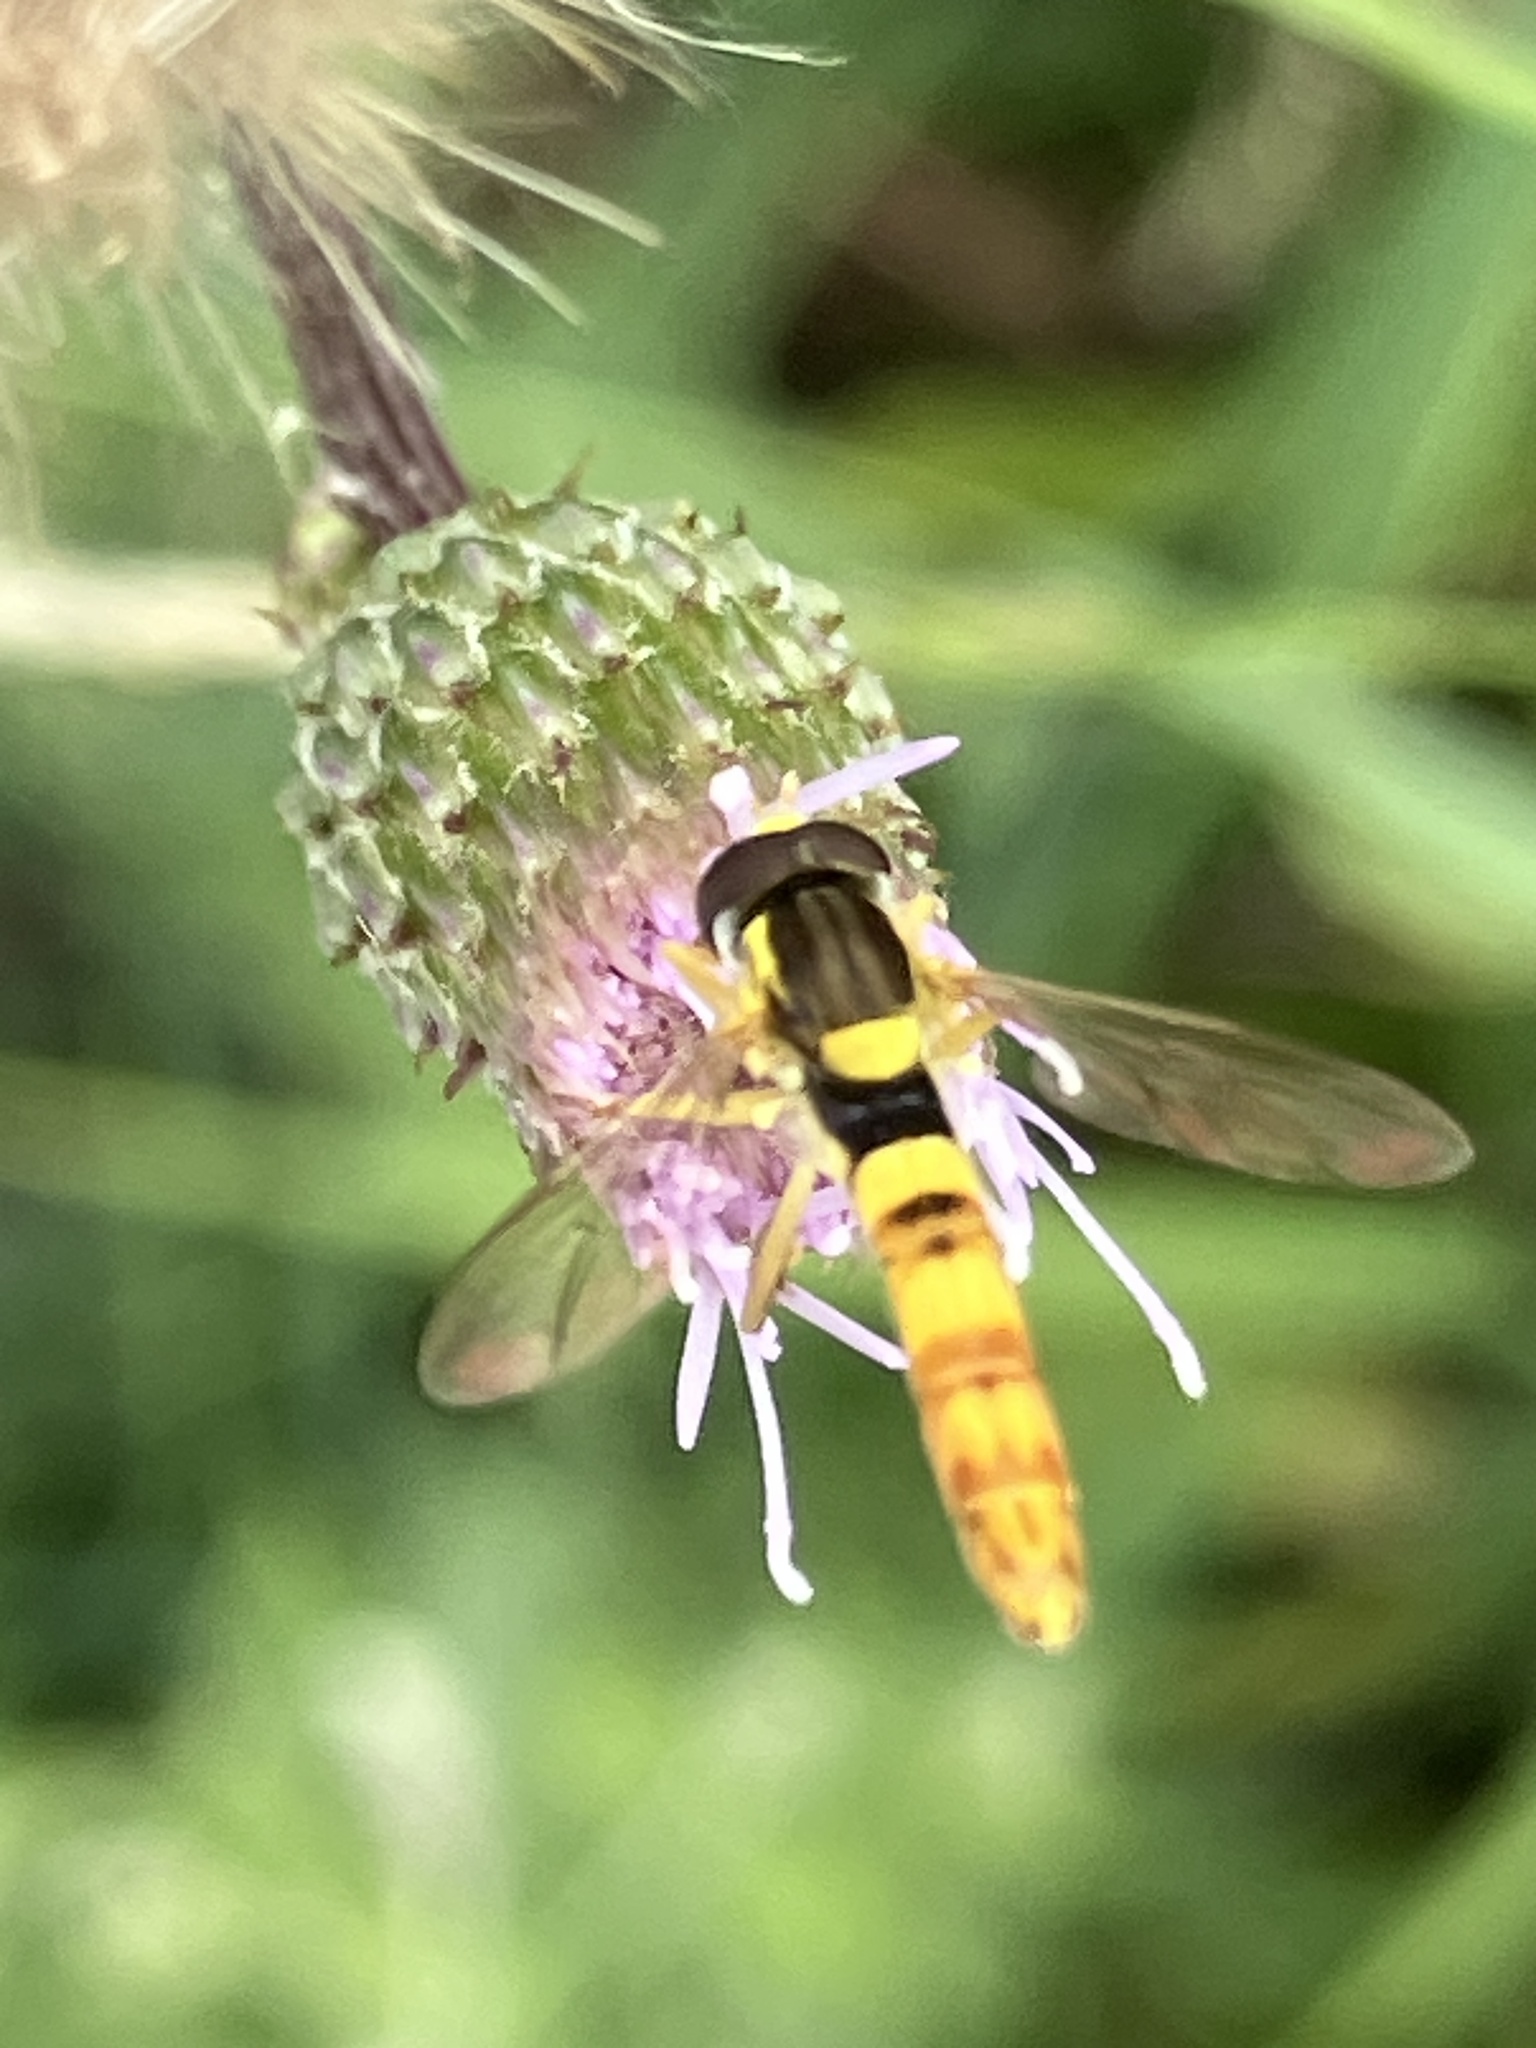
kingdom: Animalia
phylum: Arthropoda
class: Insecta
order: Diptera
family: Syrphidae
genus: Sphaerophoria
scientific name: Sphaerophoria scripta
